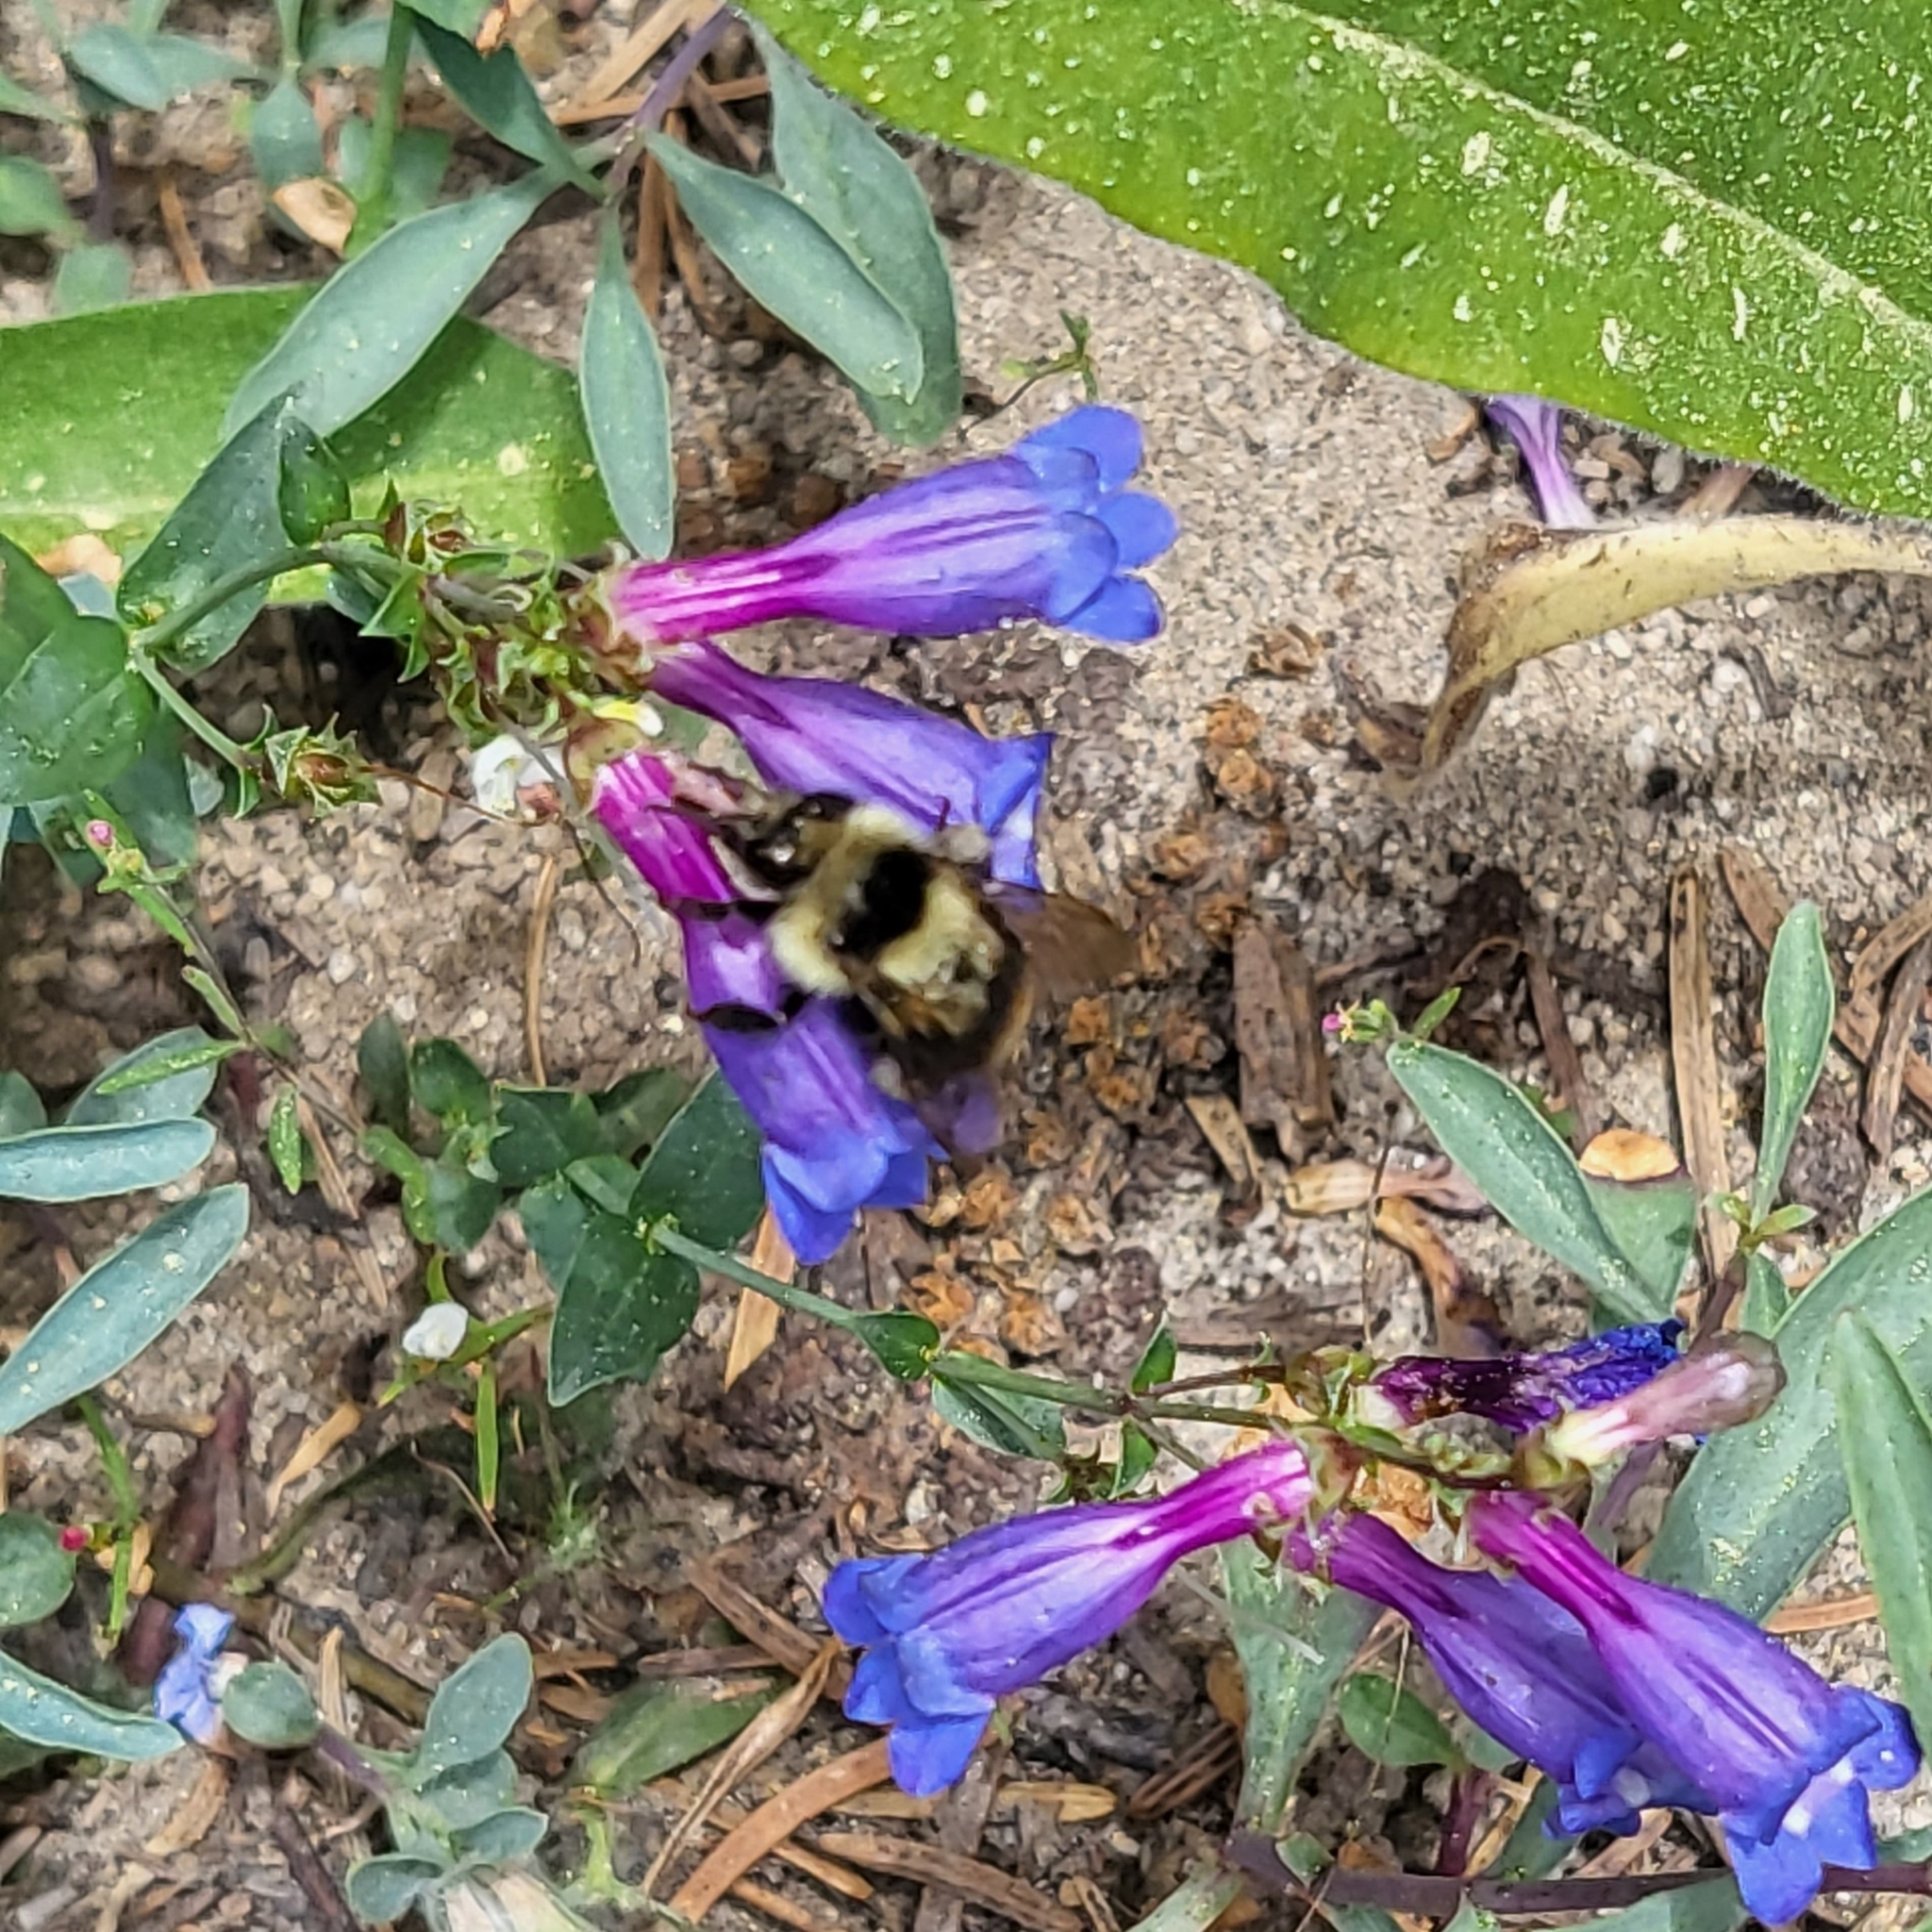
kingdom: Animalia
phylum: Arthropoda
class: Insecta
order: Hymenoptera
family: Apidae
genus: Bombus
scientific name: Bombus melanopygus
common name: Black tail bumble bee
